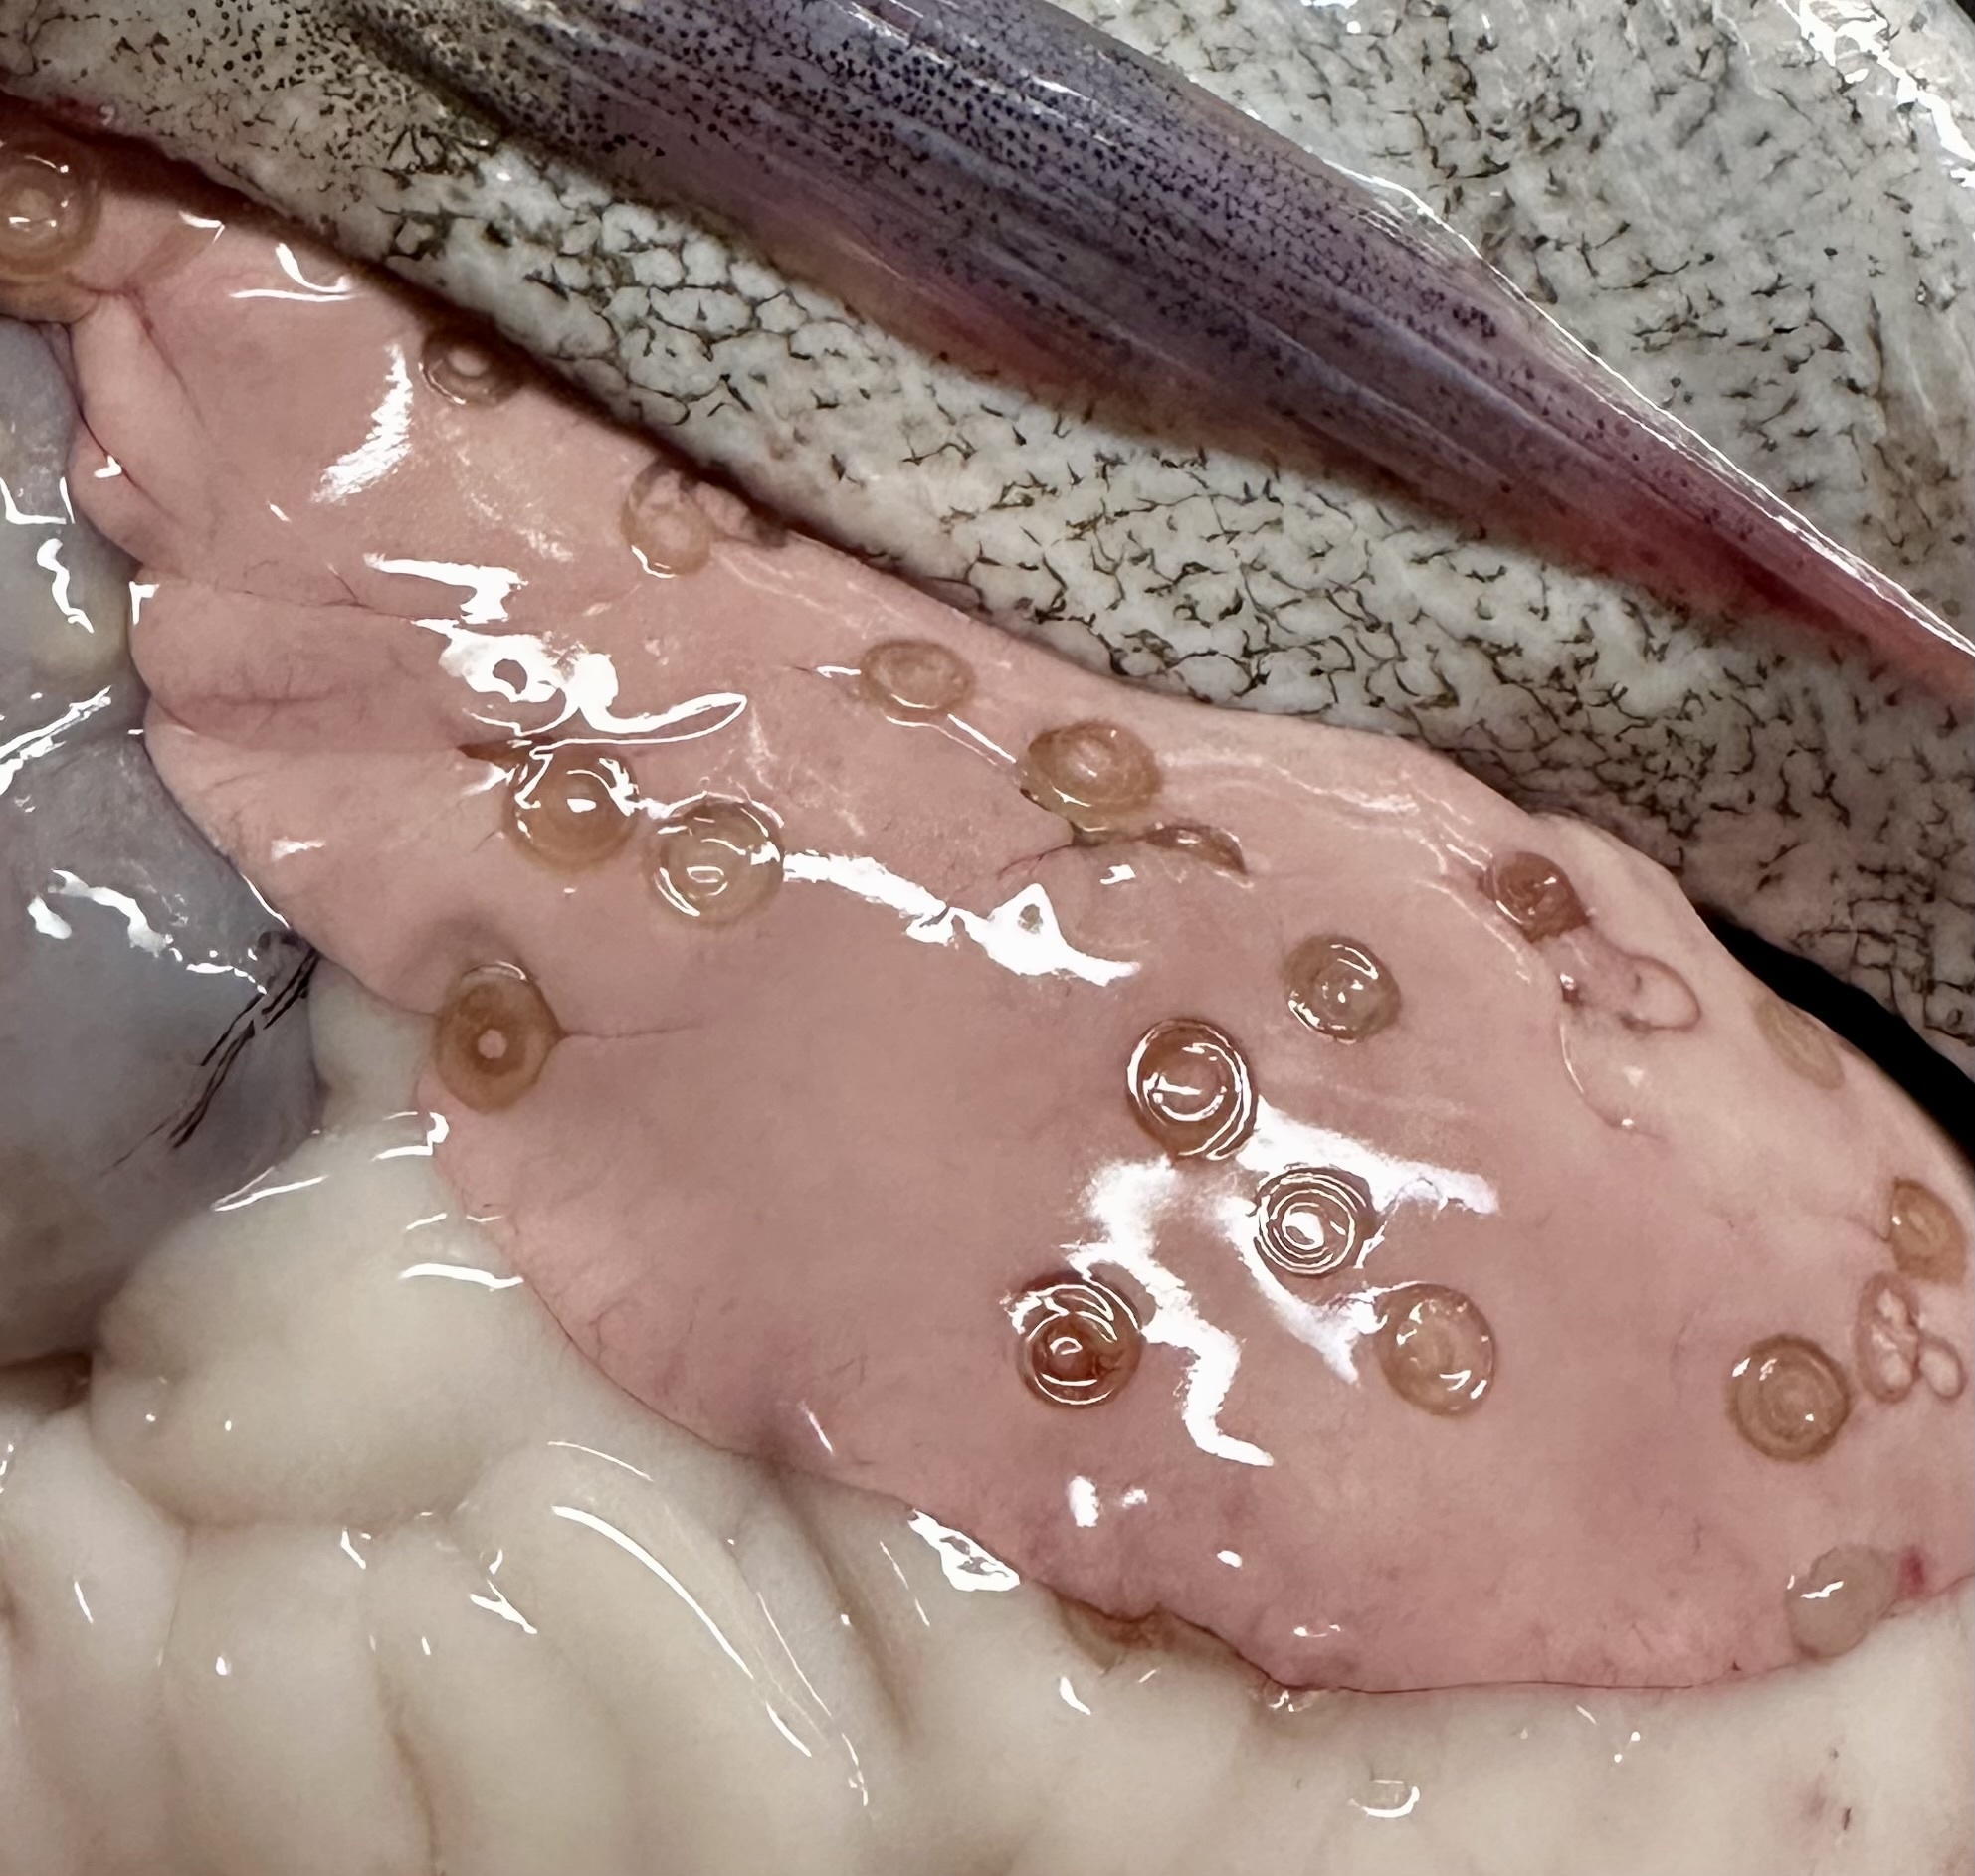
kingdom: Animalia
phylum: Nematoda
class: Chromadorea
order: Rhabditida
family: Anisakidae
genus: Anisakis
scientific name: Anisakis simplex
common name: Herring worm
